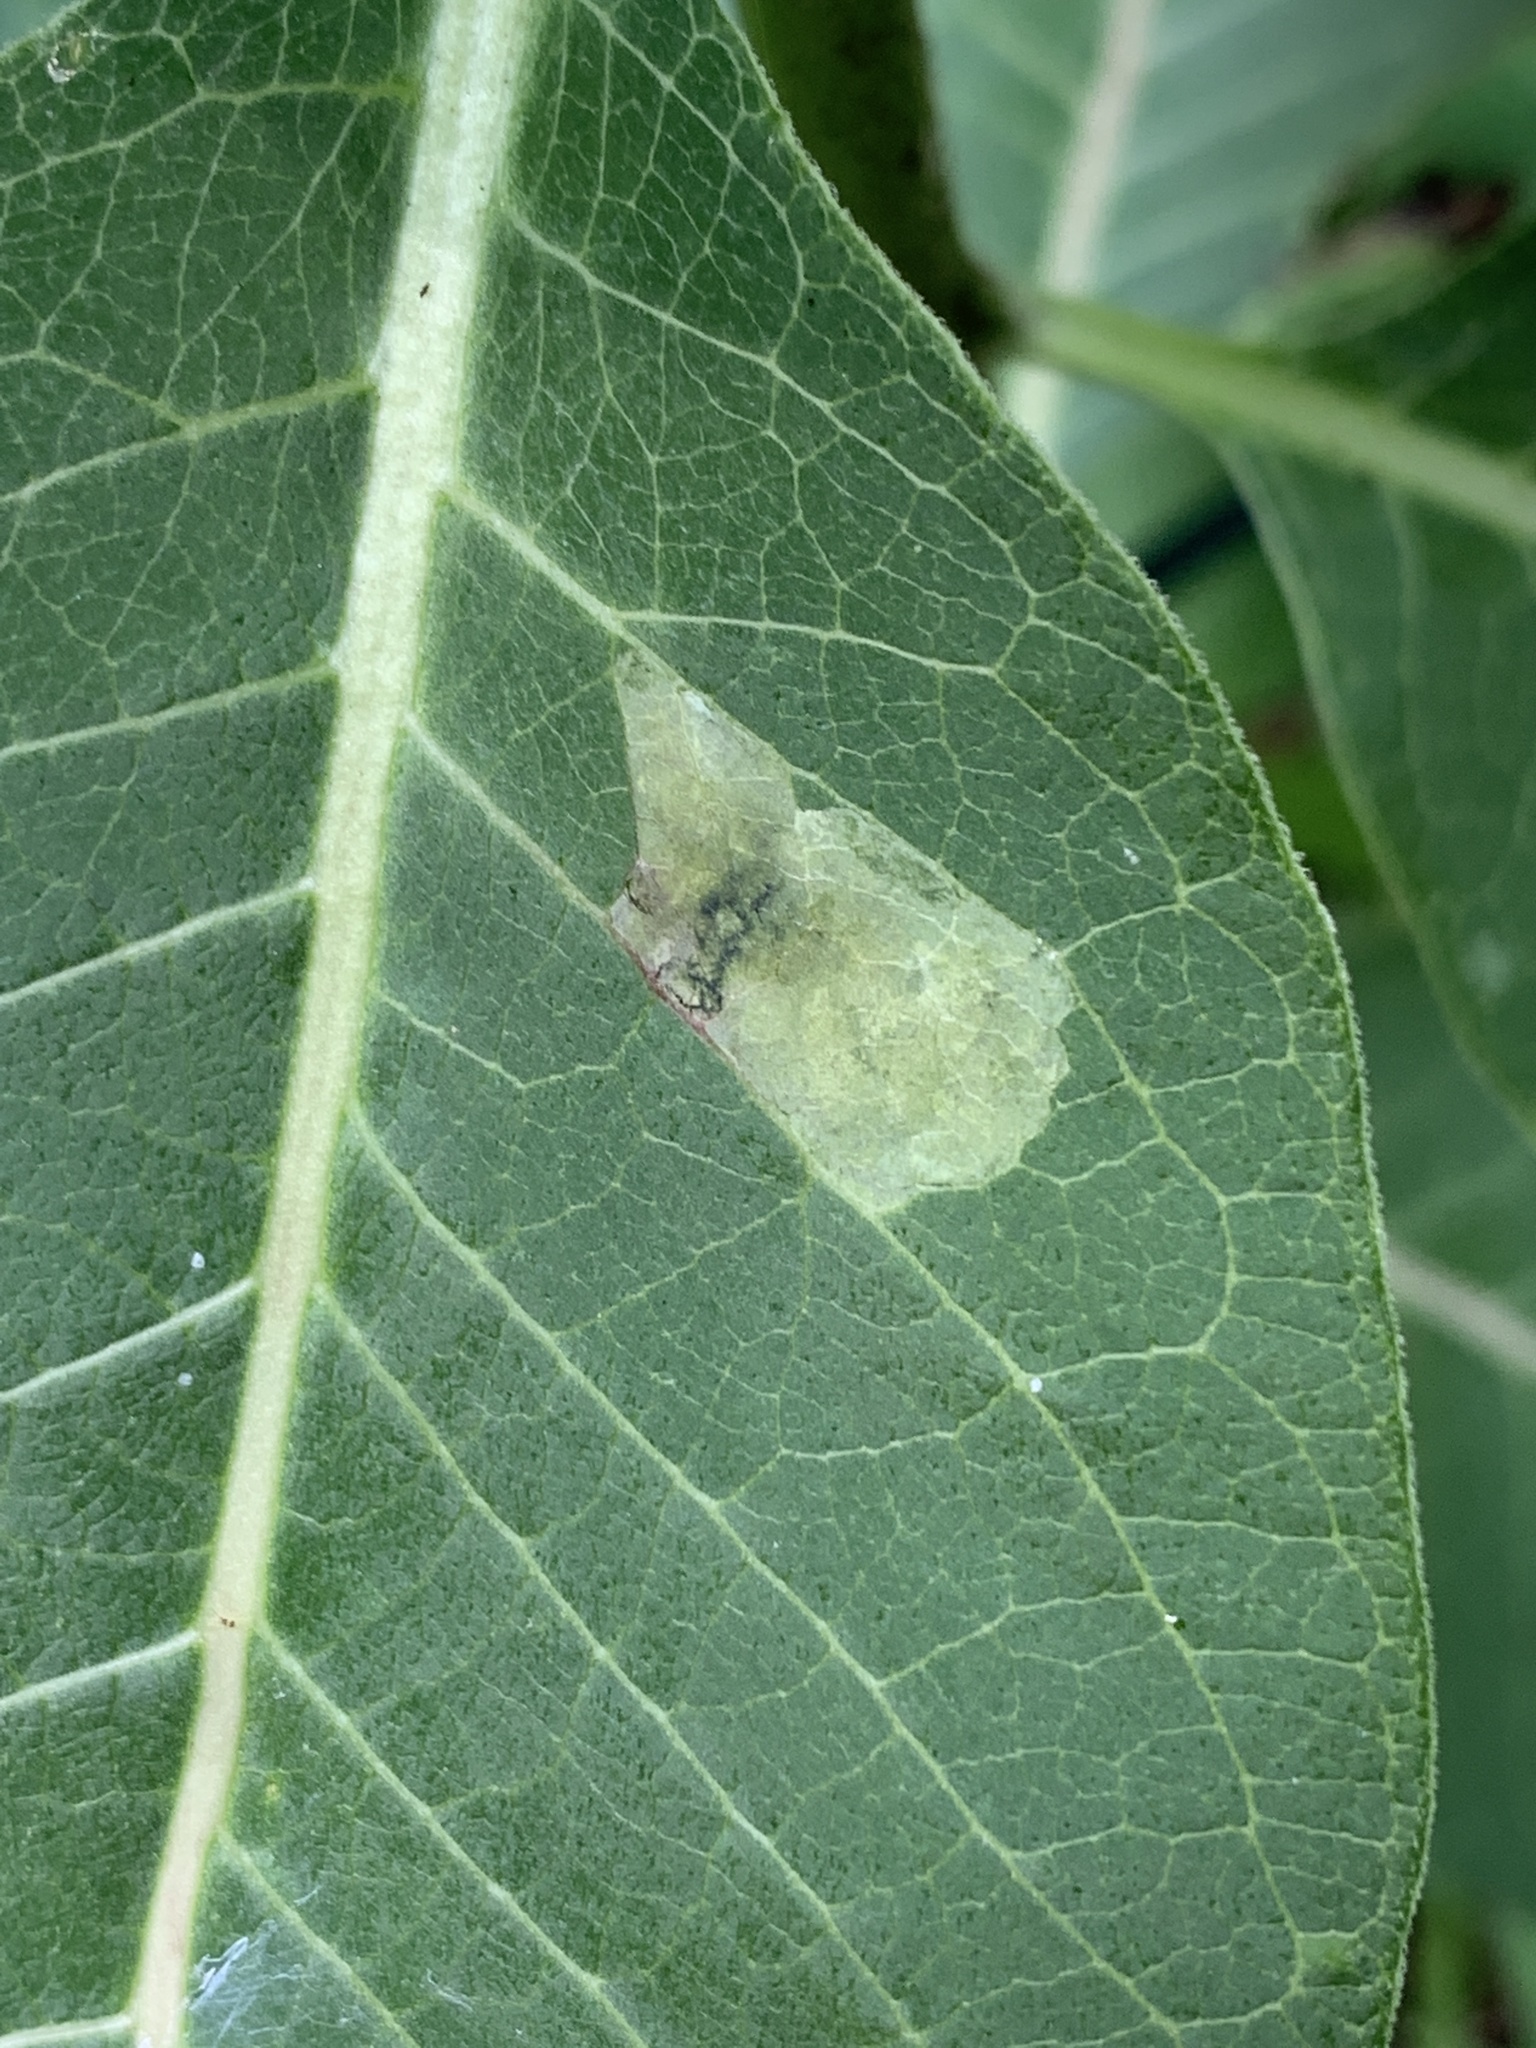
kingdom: Animalia
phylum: Arthropoda
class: Insecta
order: Diptera
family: Agromyzidae
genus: Liriomyza
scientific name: Liriomyza asclepiadis
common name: Milkweed leaf-miner fly
